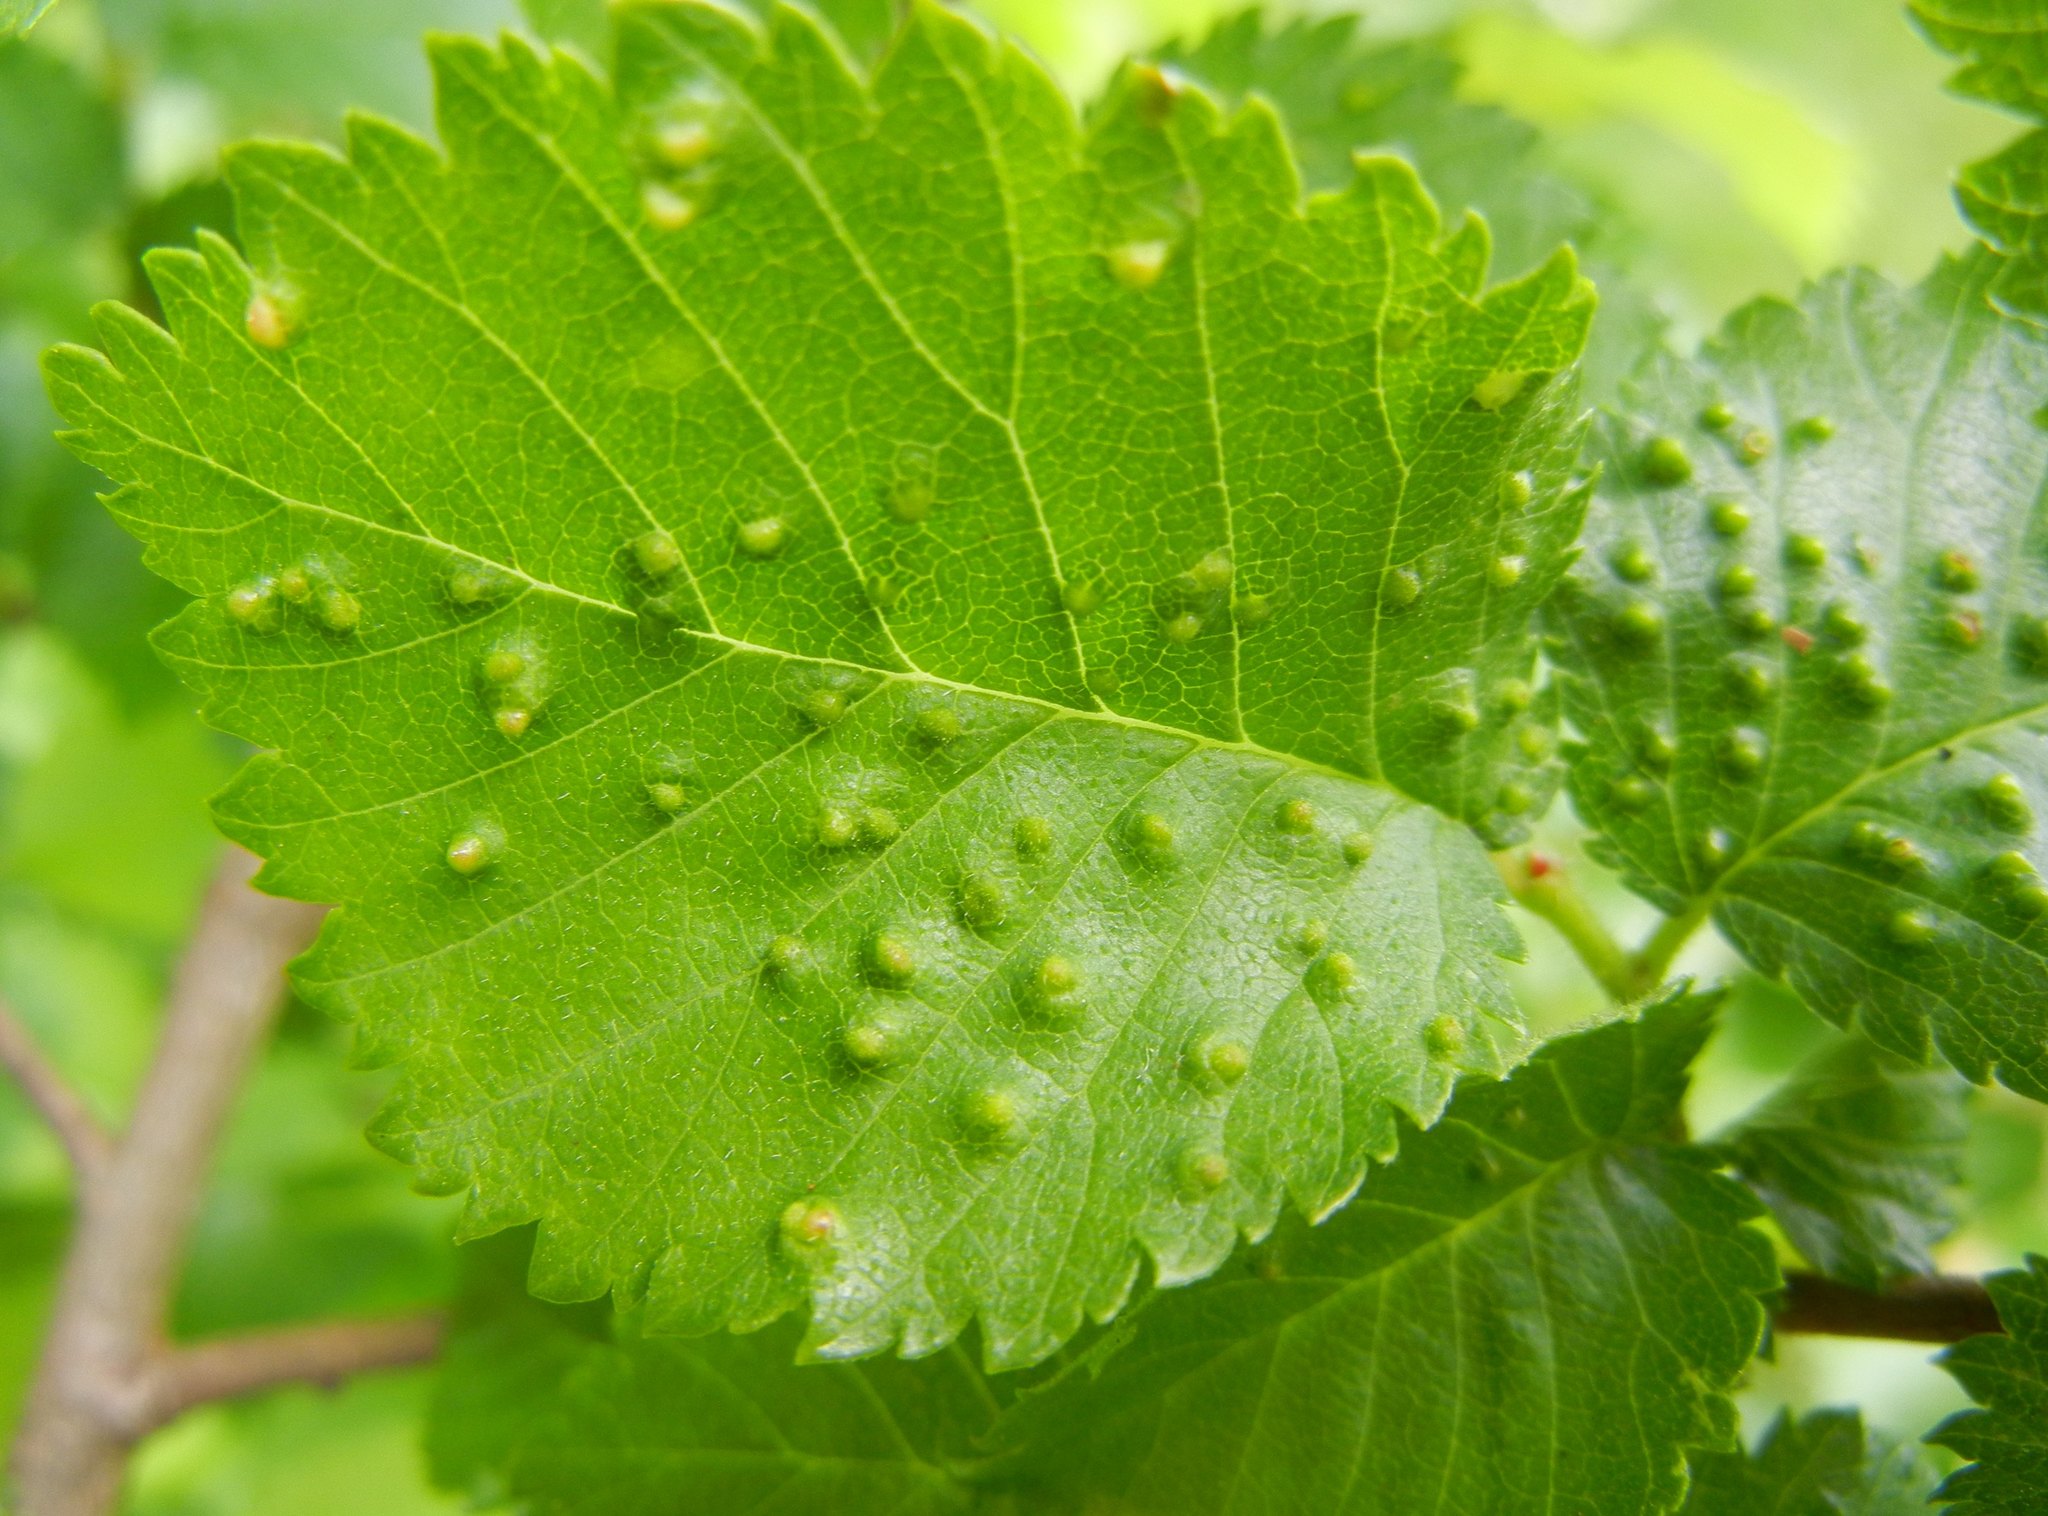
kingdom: Animalia
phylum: Arthropoda
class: Arachnida
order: Trombidiformes
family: Eriophyidae
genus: Aceria
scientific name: Aceria brevipunctata
